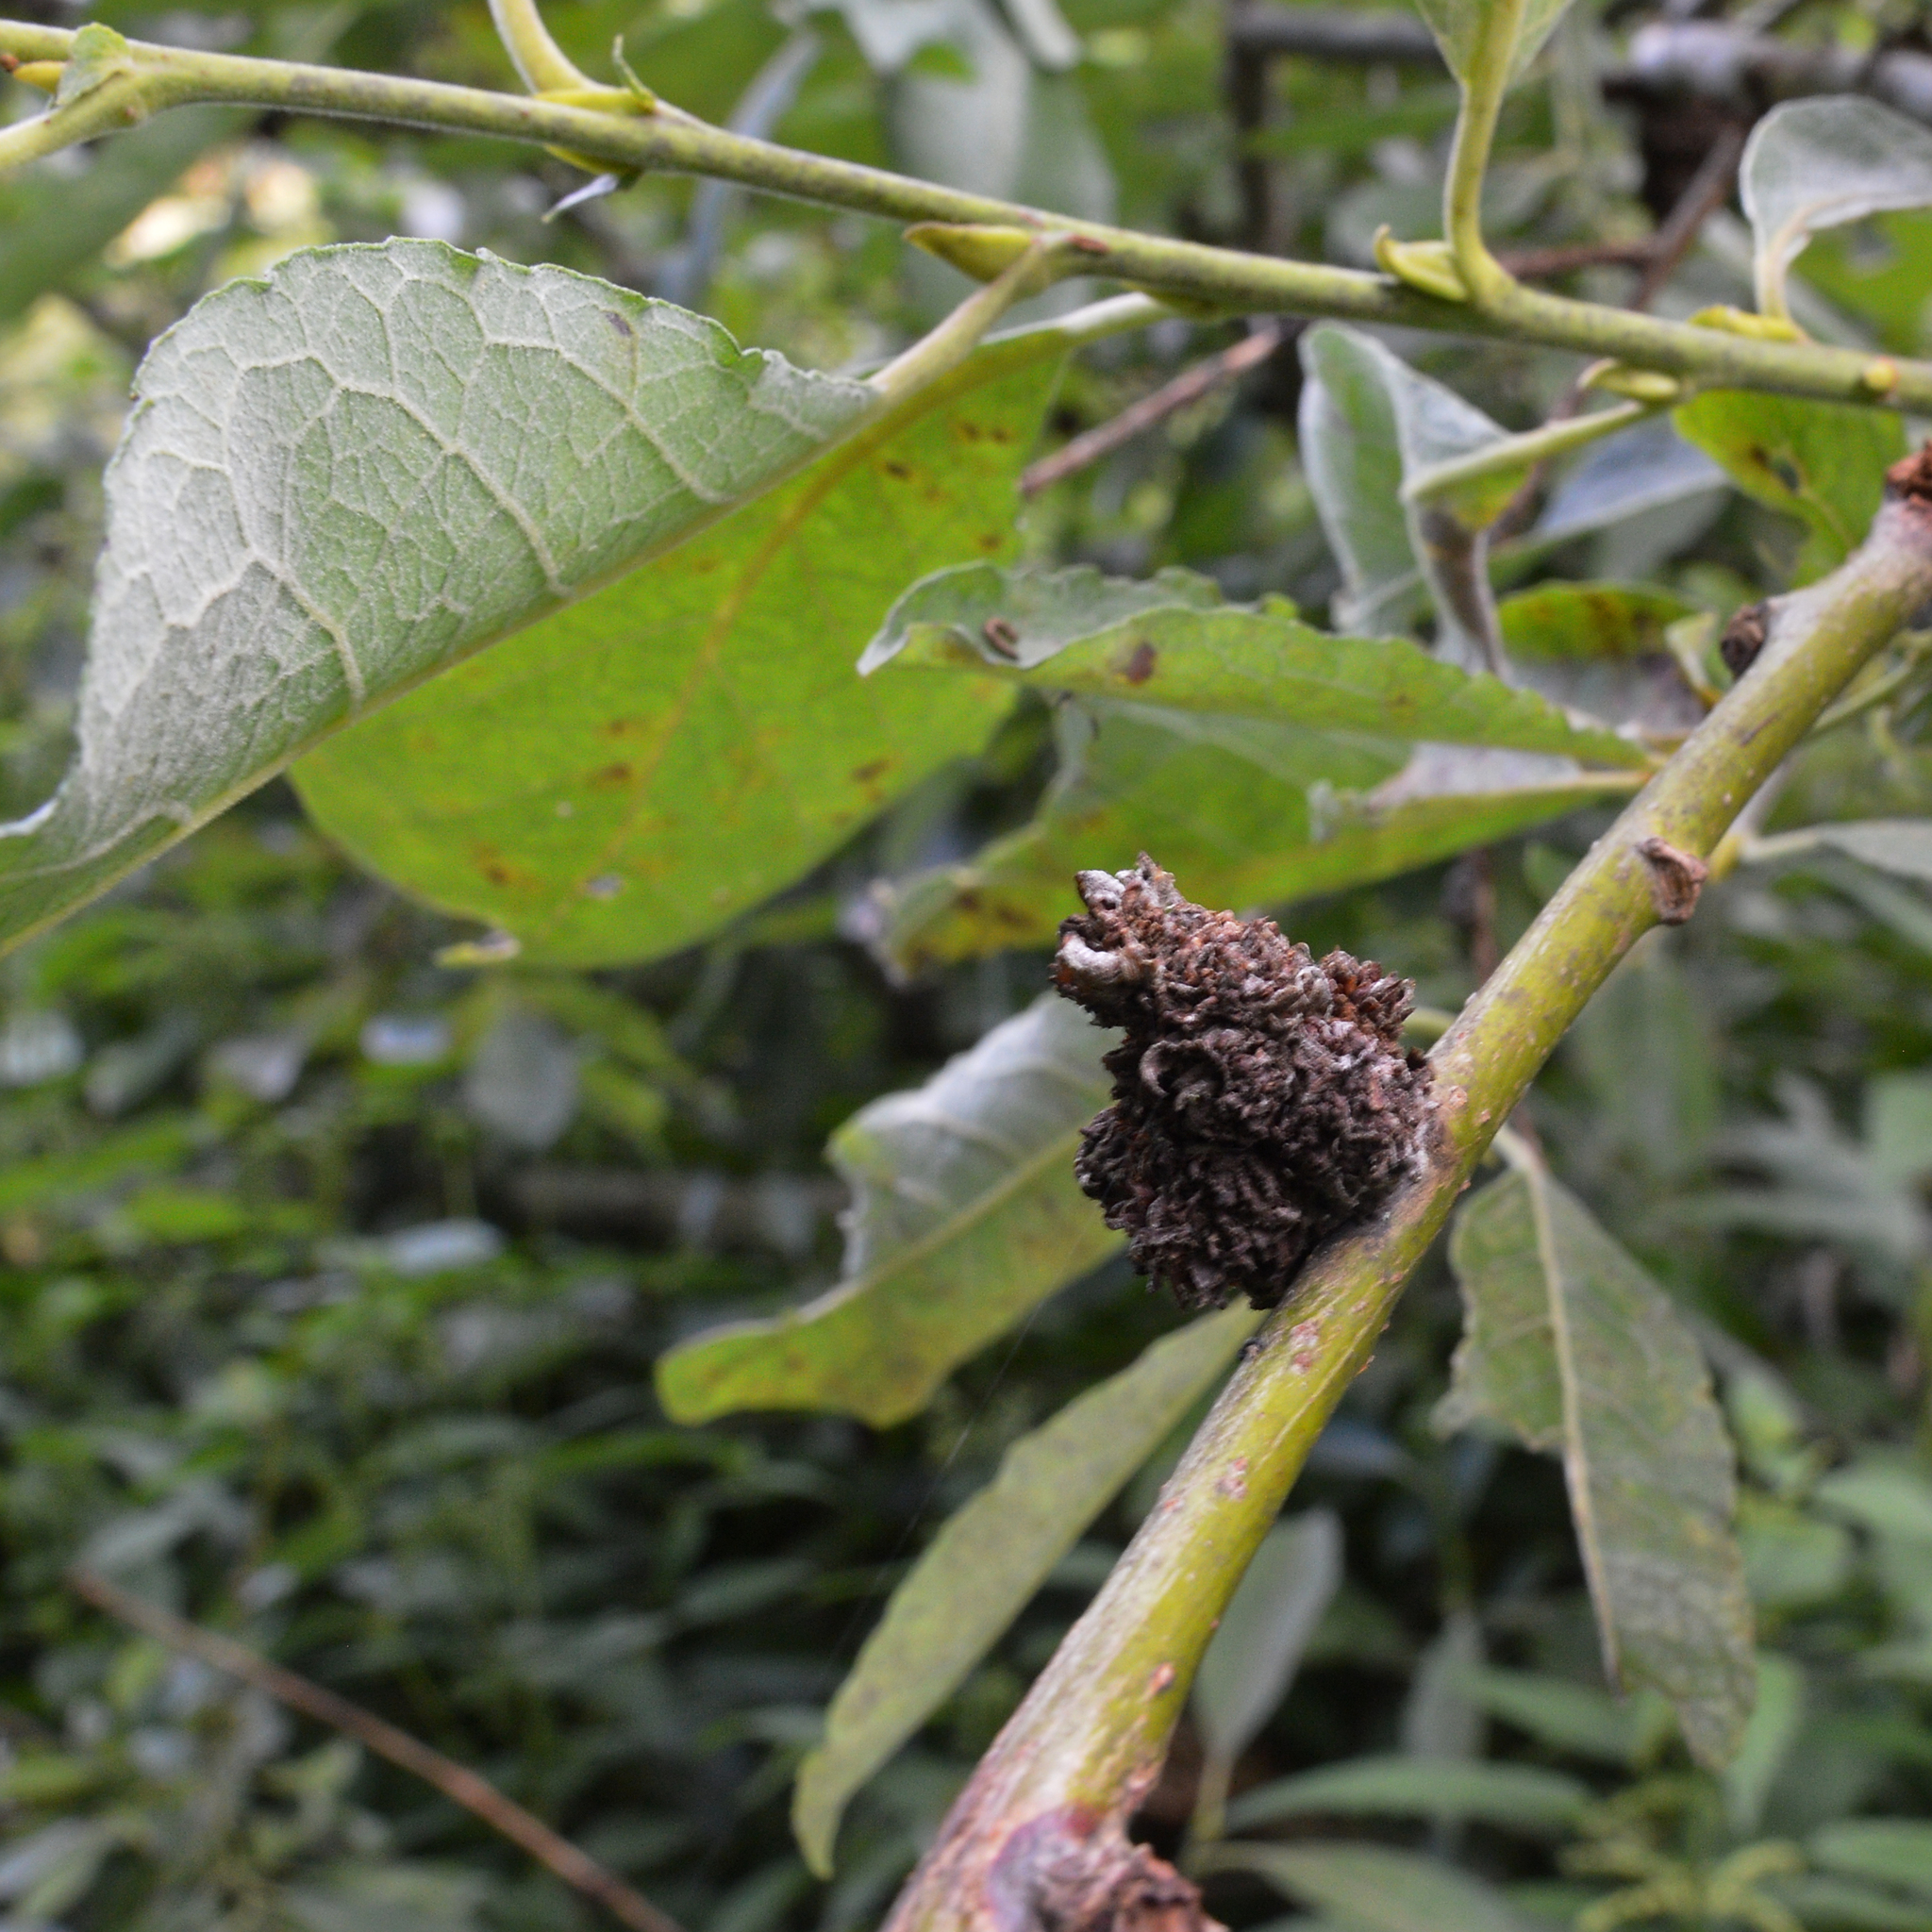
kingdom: Plantae
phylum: Tracheophyta
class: Magnoliopsida
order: Malpighiales
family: Salicaceae
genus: Salix
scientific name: Salix caprea
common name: Goat willow
